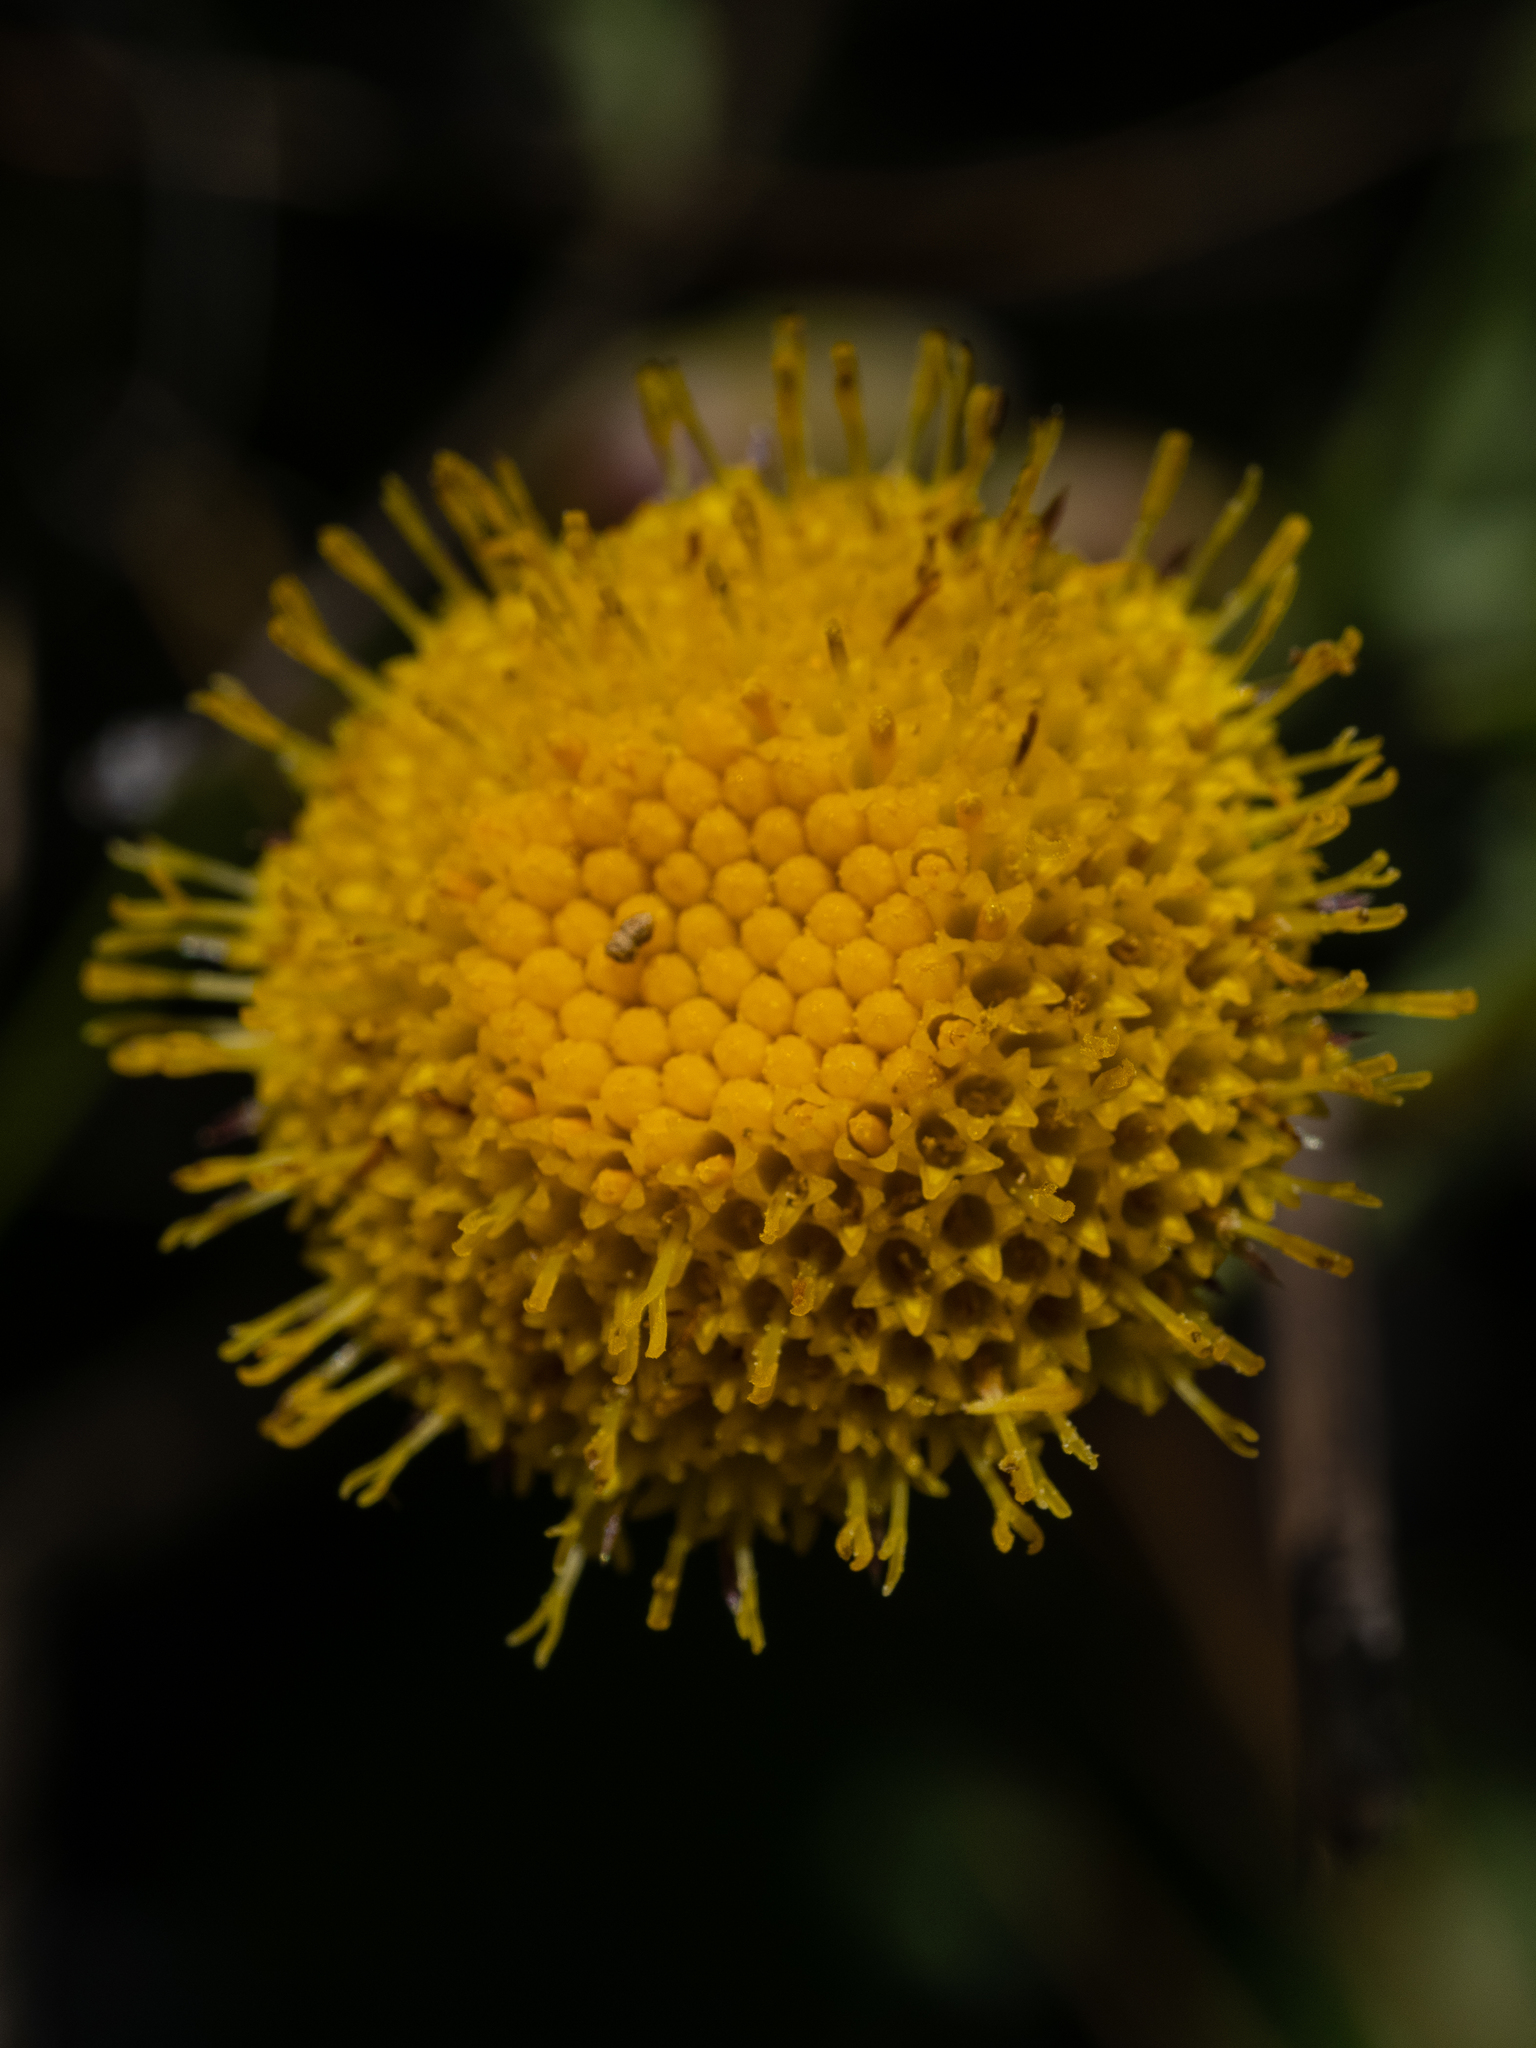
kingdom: Plantae
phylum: Tracheophyta
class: Magnoliopsida
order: Asterales
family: Asteraceae
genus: Erigeron
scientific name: Erigeron supplex
